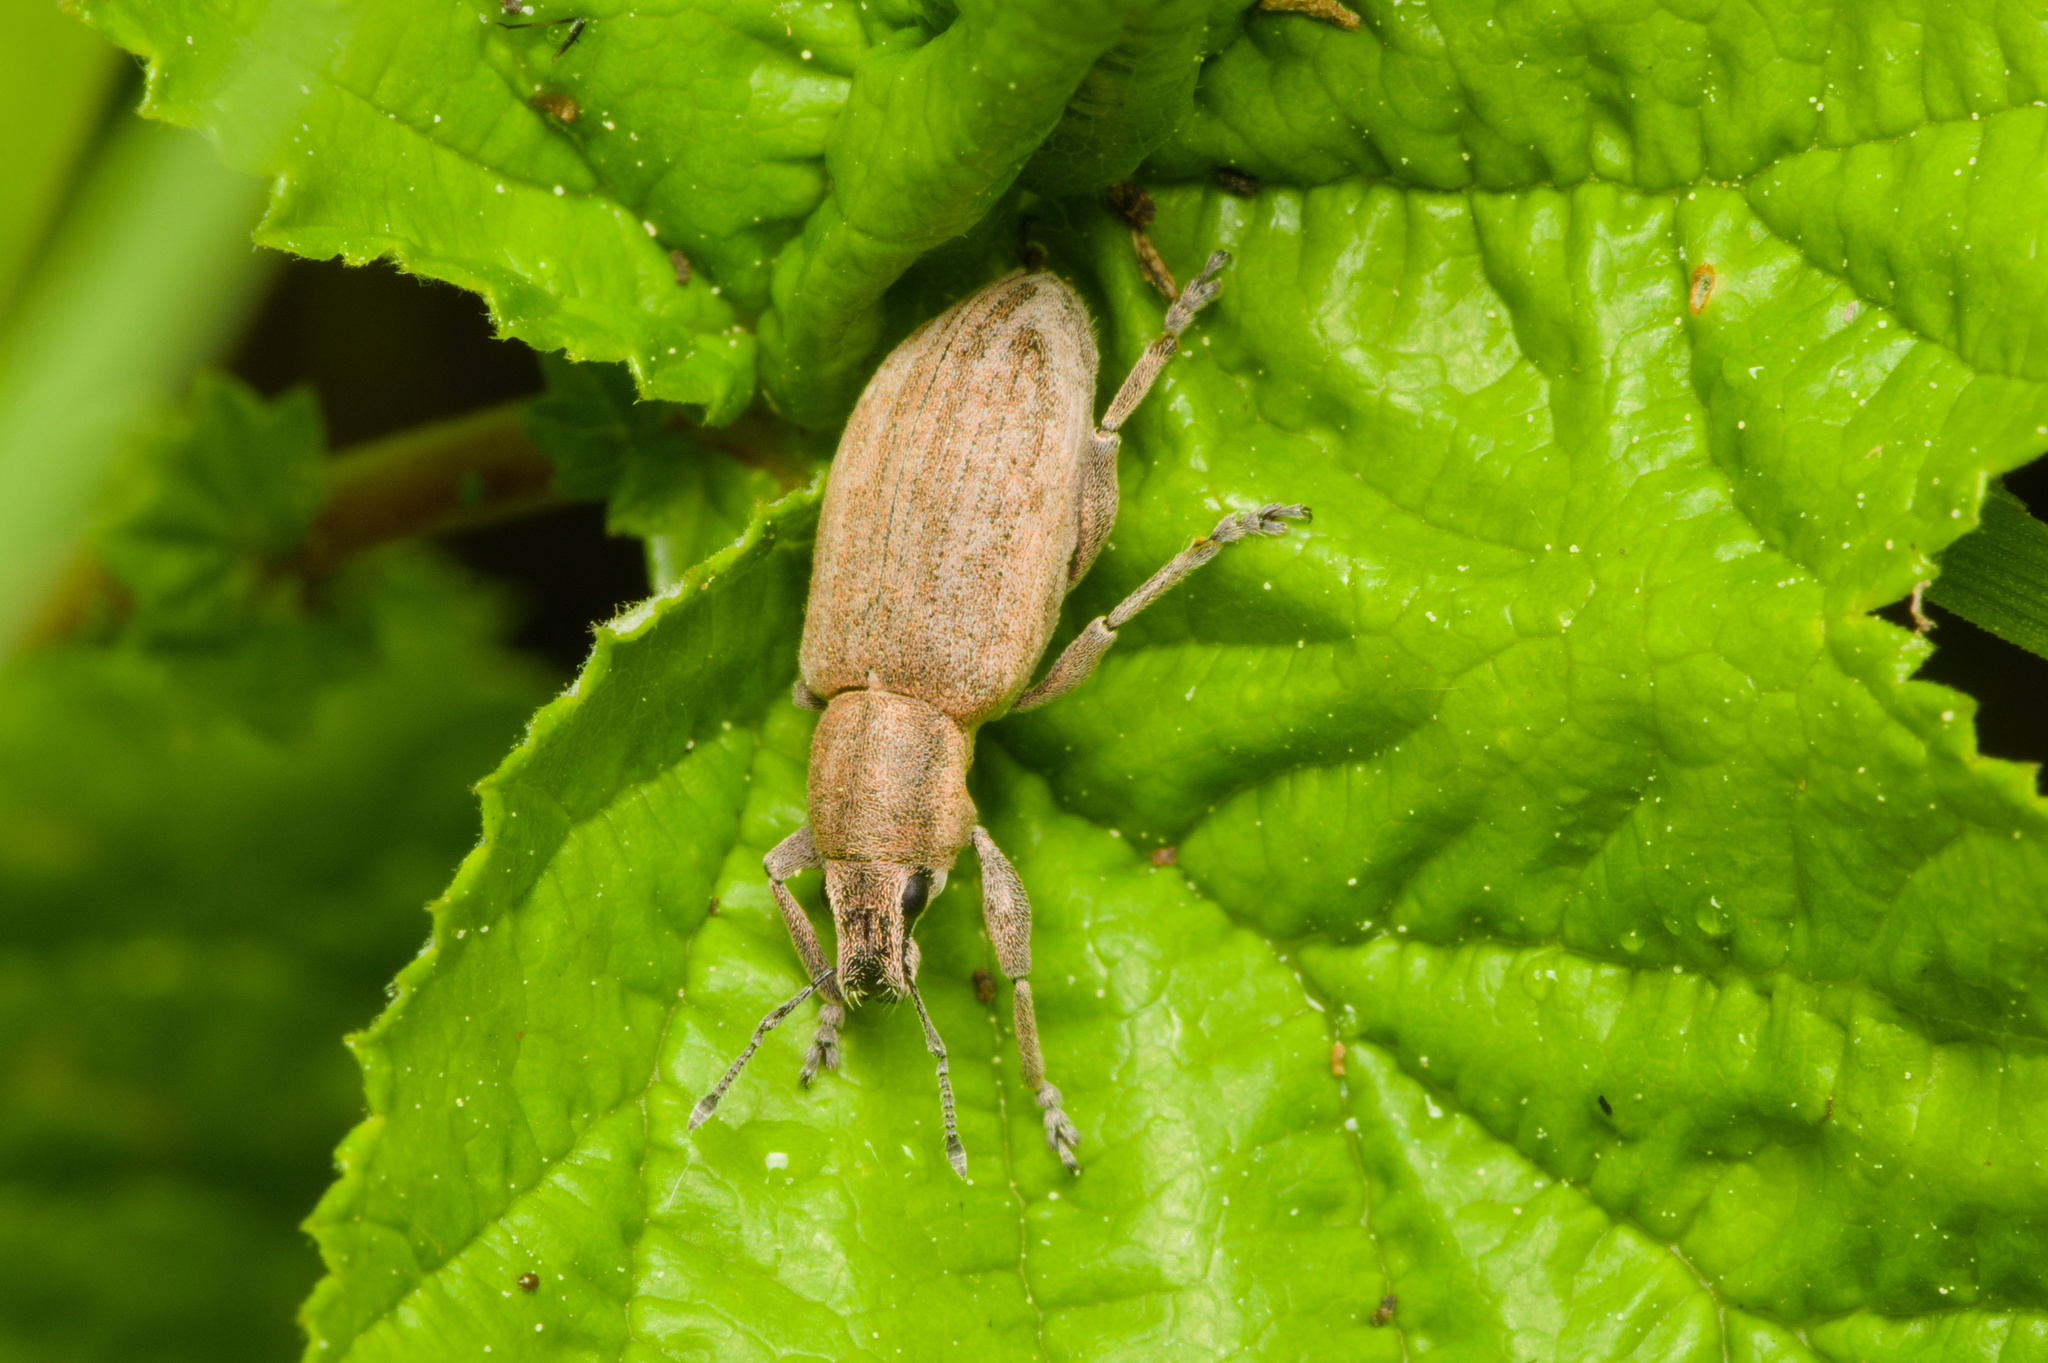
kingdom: Animalia
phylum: Arthropoda
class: Insecta
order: Coleoptera
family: Curculionidae
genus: Tanymecus
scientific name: Tanymecus palliatus
